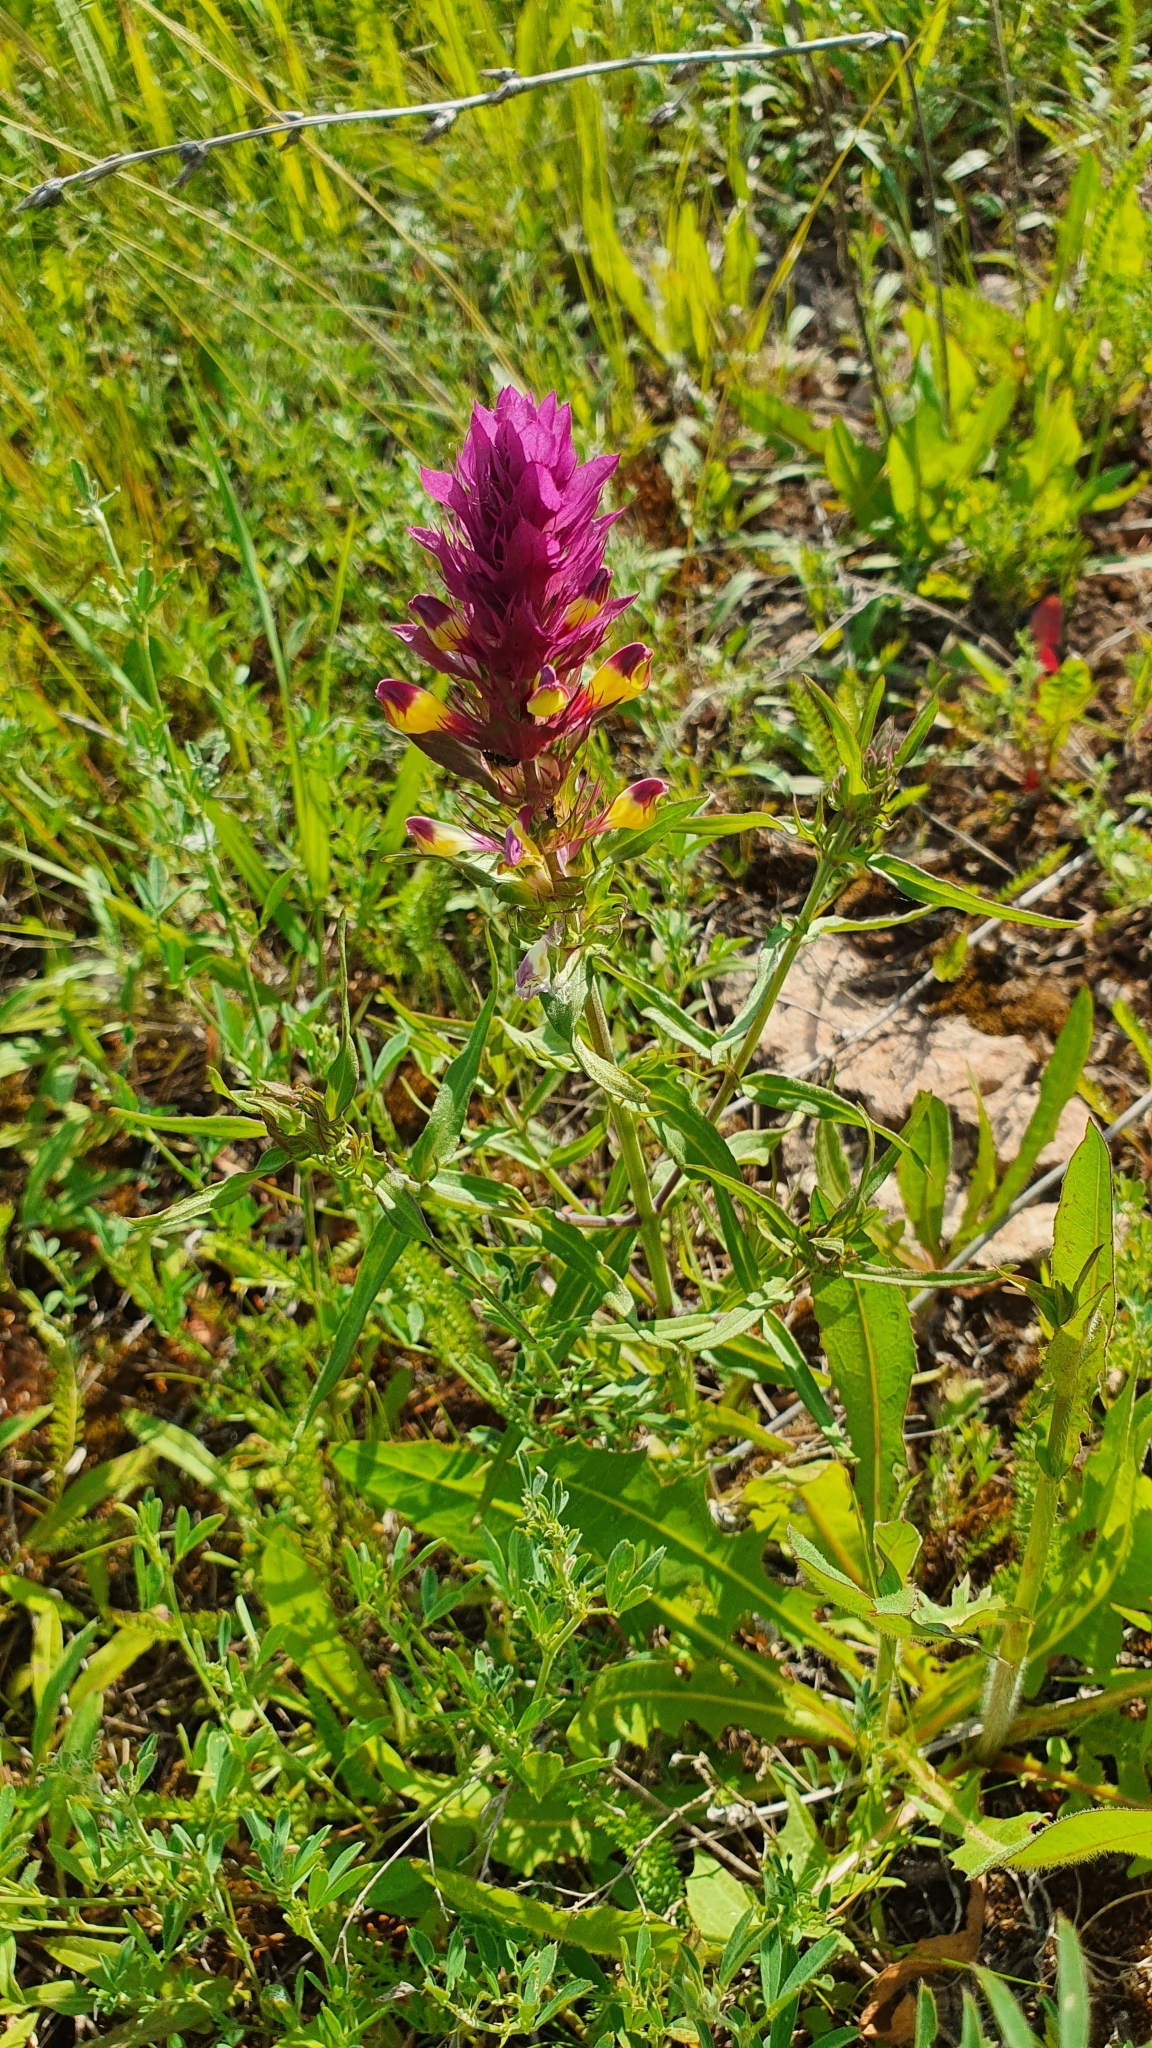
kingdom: Plantae
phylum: Tracheophyta
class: Magnoliopsida
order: Lamiales
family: Orobanchaceae
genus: Melampyrum
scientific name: Melampyrum arvense
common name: Field cow-wheat
